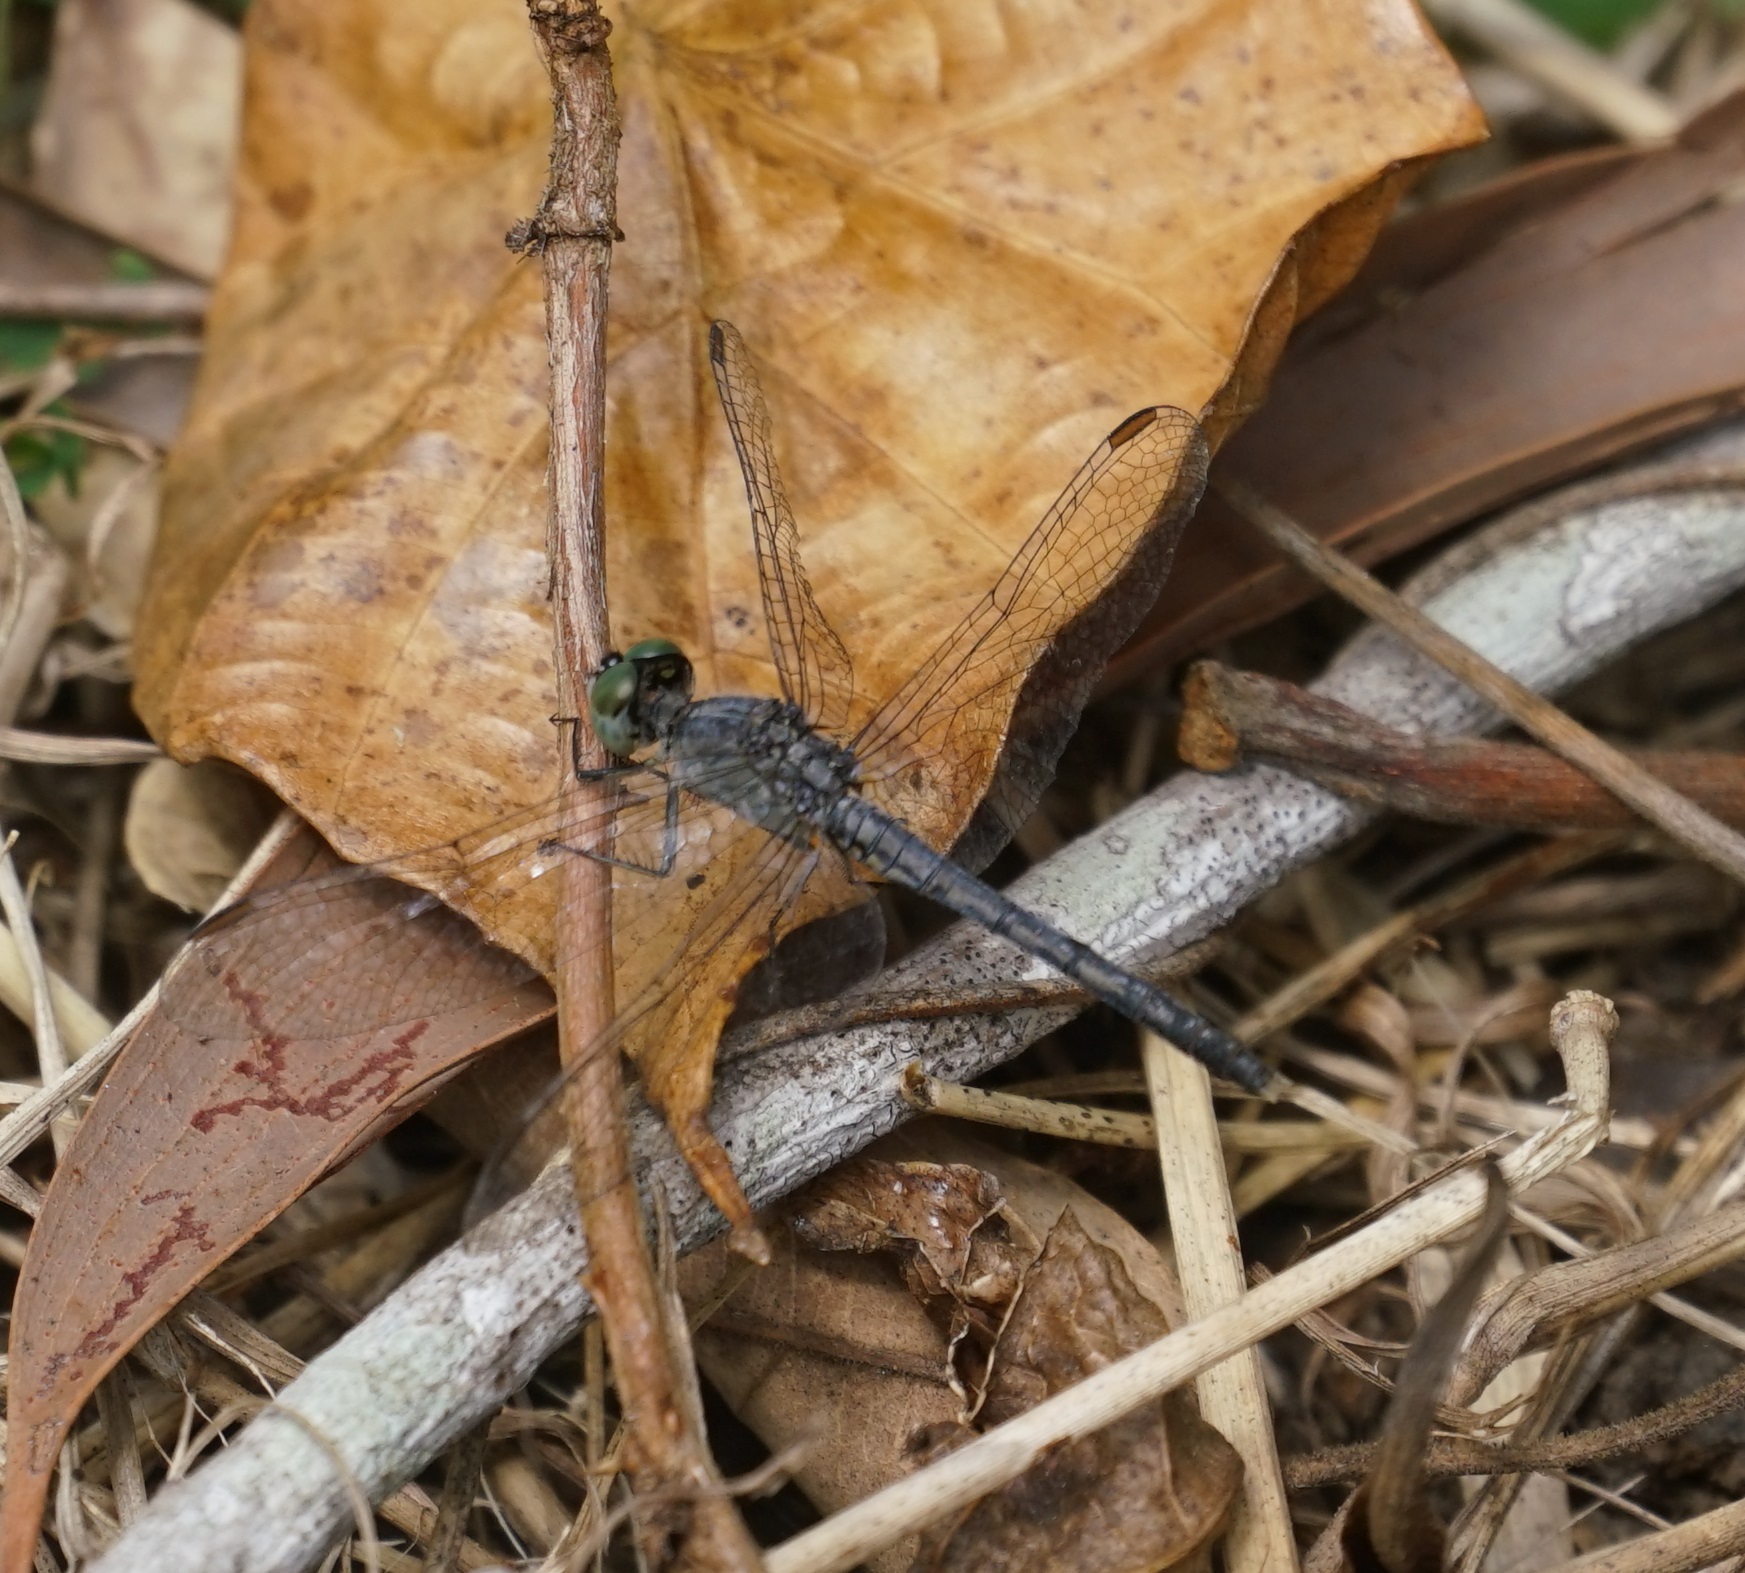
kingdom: Animalia
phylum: Arthropoda
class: Insecta
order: Odonata
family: Libellulidae
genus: Diplacodes
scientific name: Diplacodes trivialis
